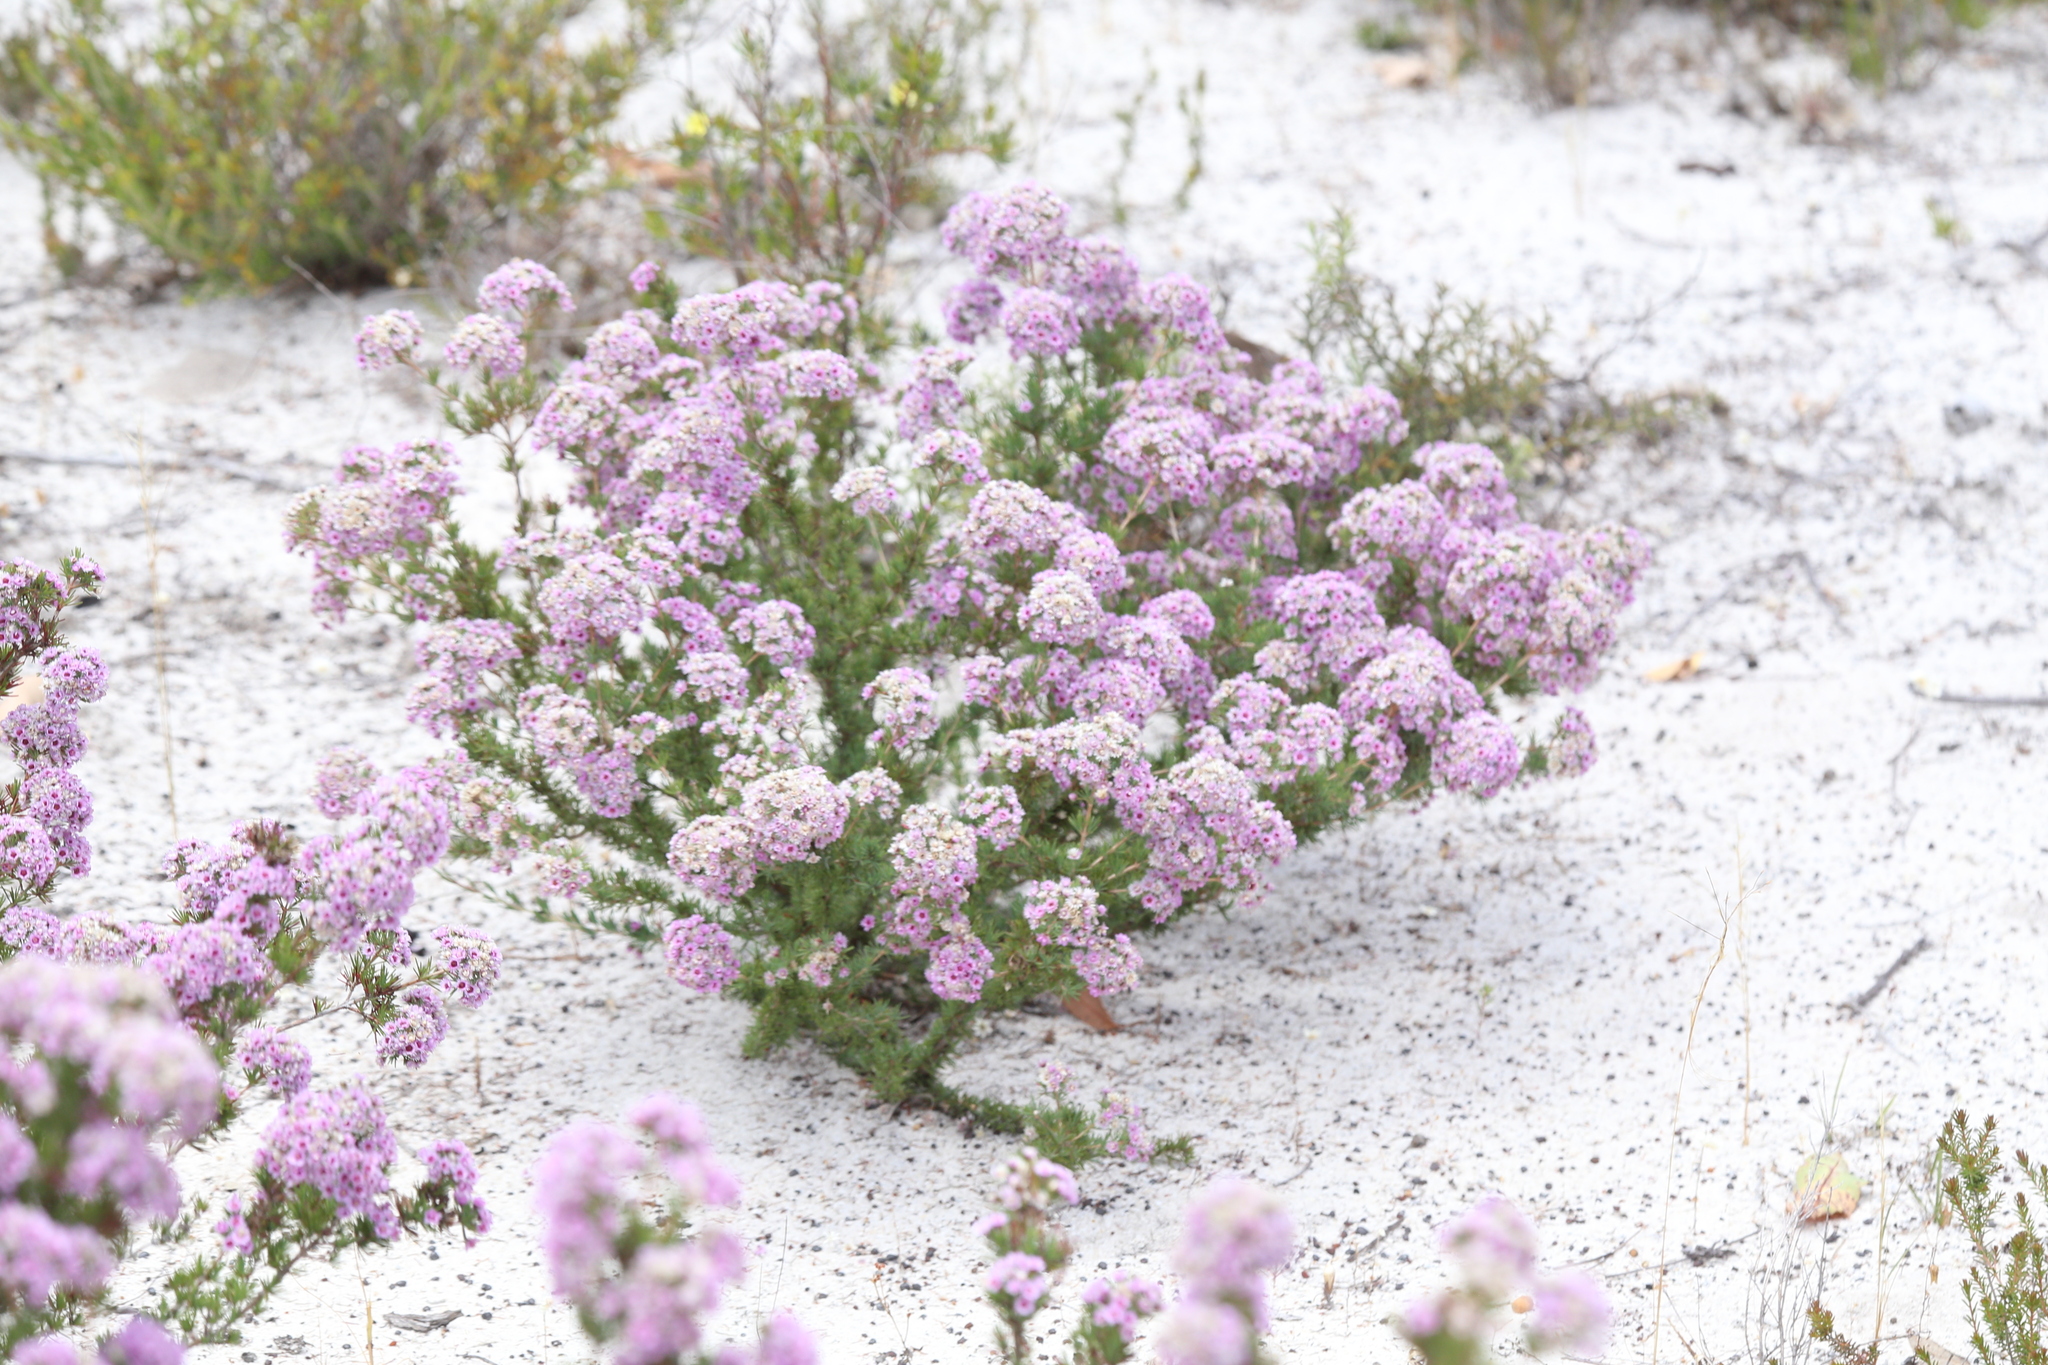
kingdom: Plantae
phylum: Tracheophyta
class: Magnoliopsida
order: Myrtales
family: Myrtaceae
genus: Verticordia
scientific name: Verticordia plumosa
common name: Plume feather-flower
